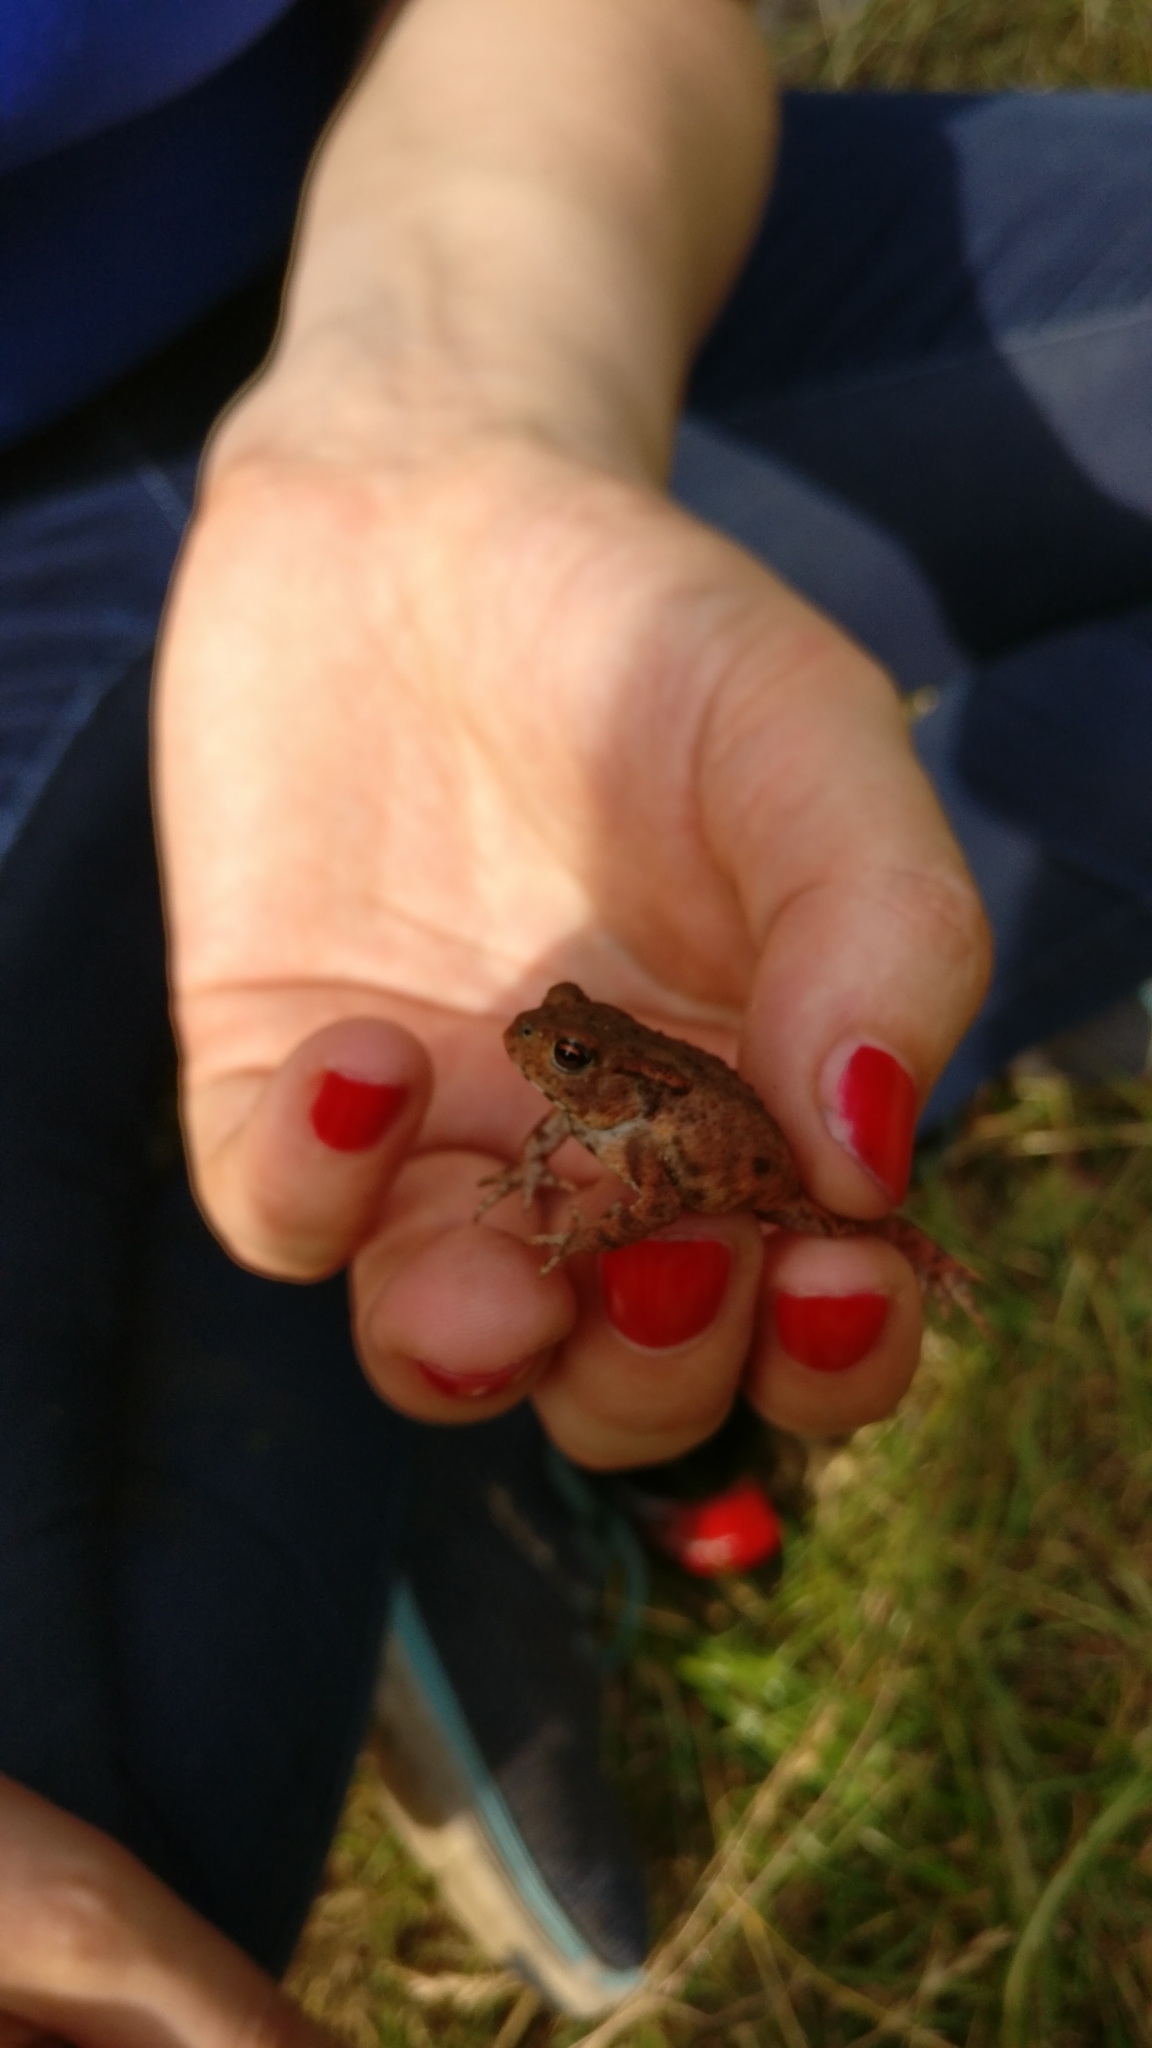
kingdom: Animalia
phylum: Chordata
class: Amphibia
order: Anura
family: Bufonidae
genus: Bufo
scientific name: Bufo bufo
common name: Common toad
